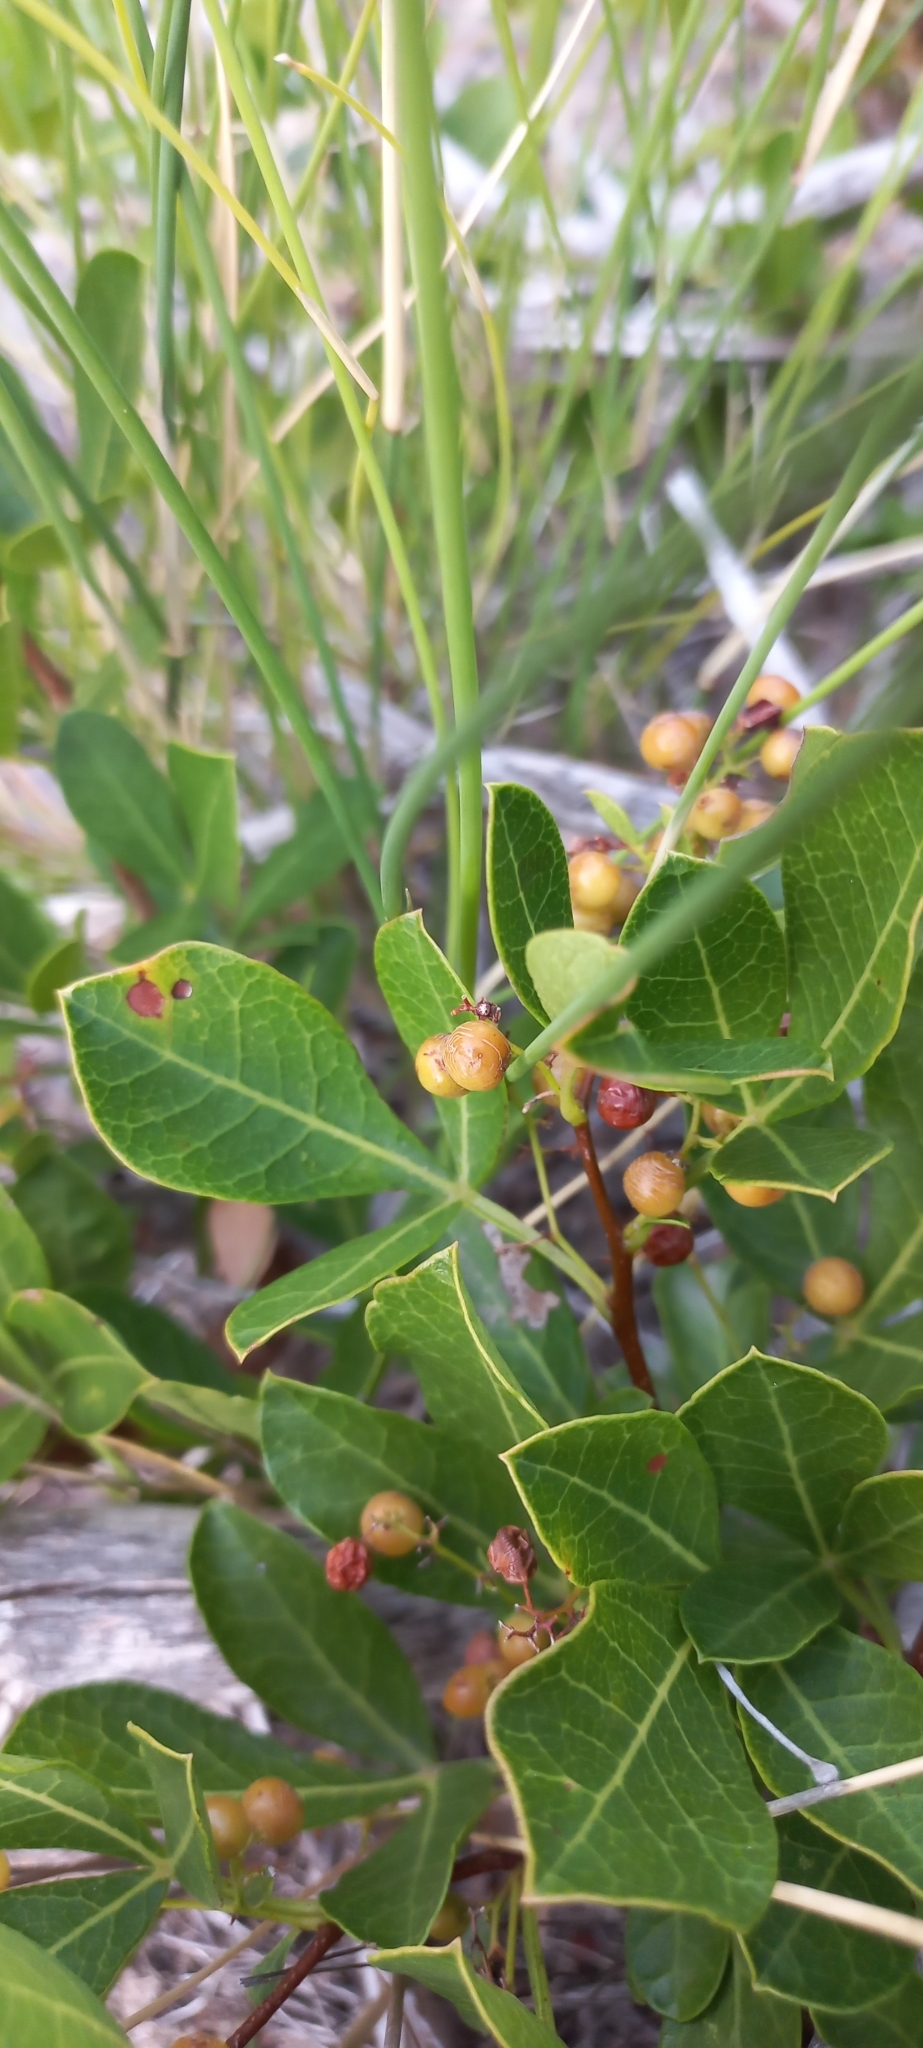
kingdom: Plantae
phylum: Tracheophyta
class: Magnoliopsida
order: Sapindales
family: Anacardiaceae
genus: Searsia
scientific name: Searsia laevigata
